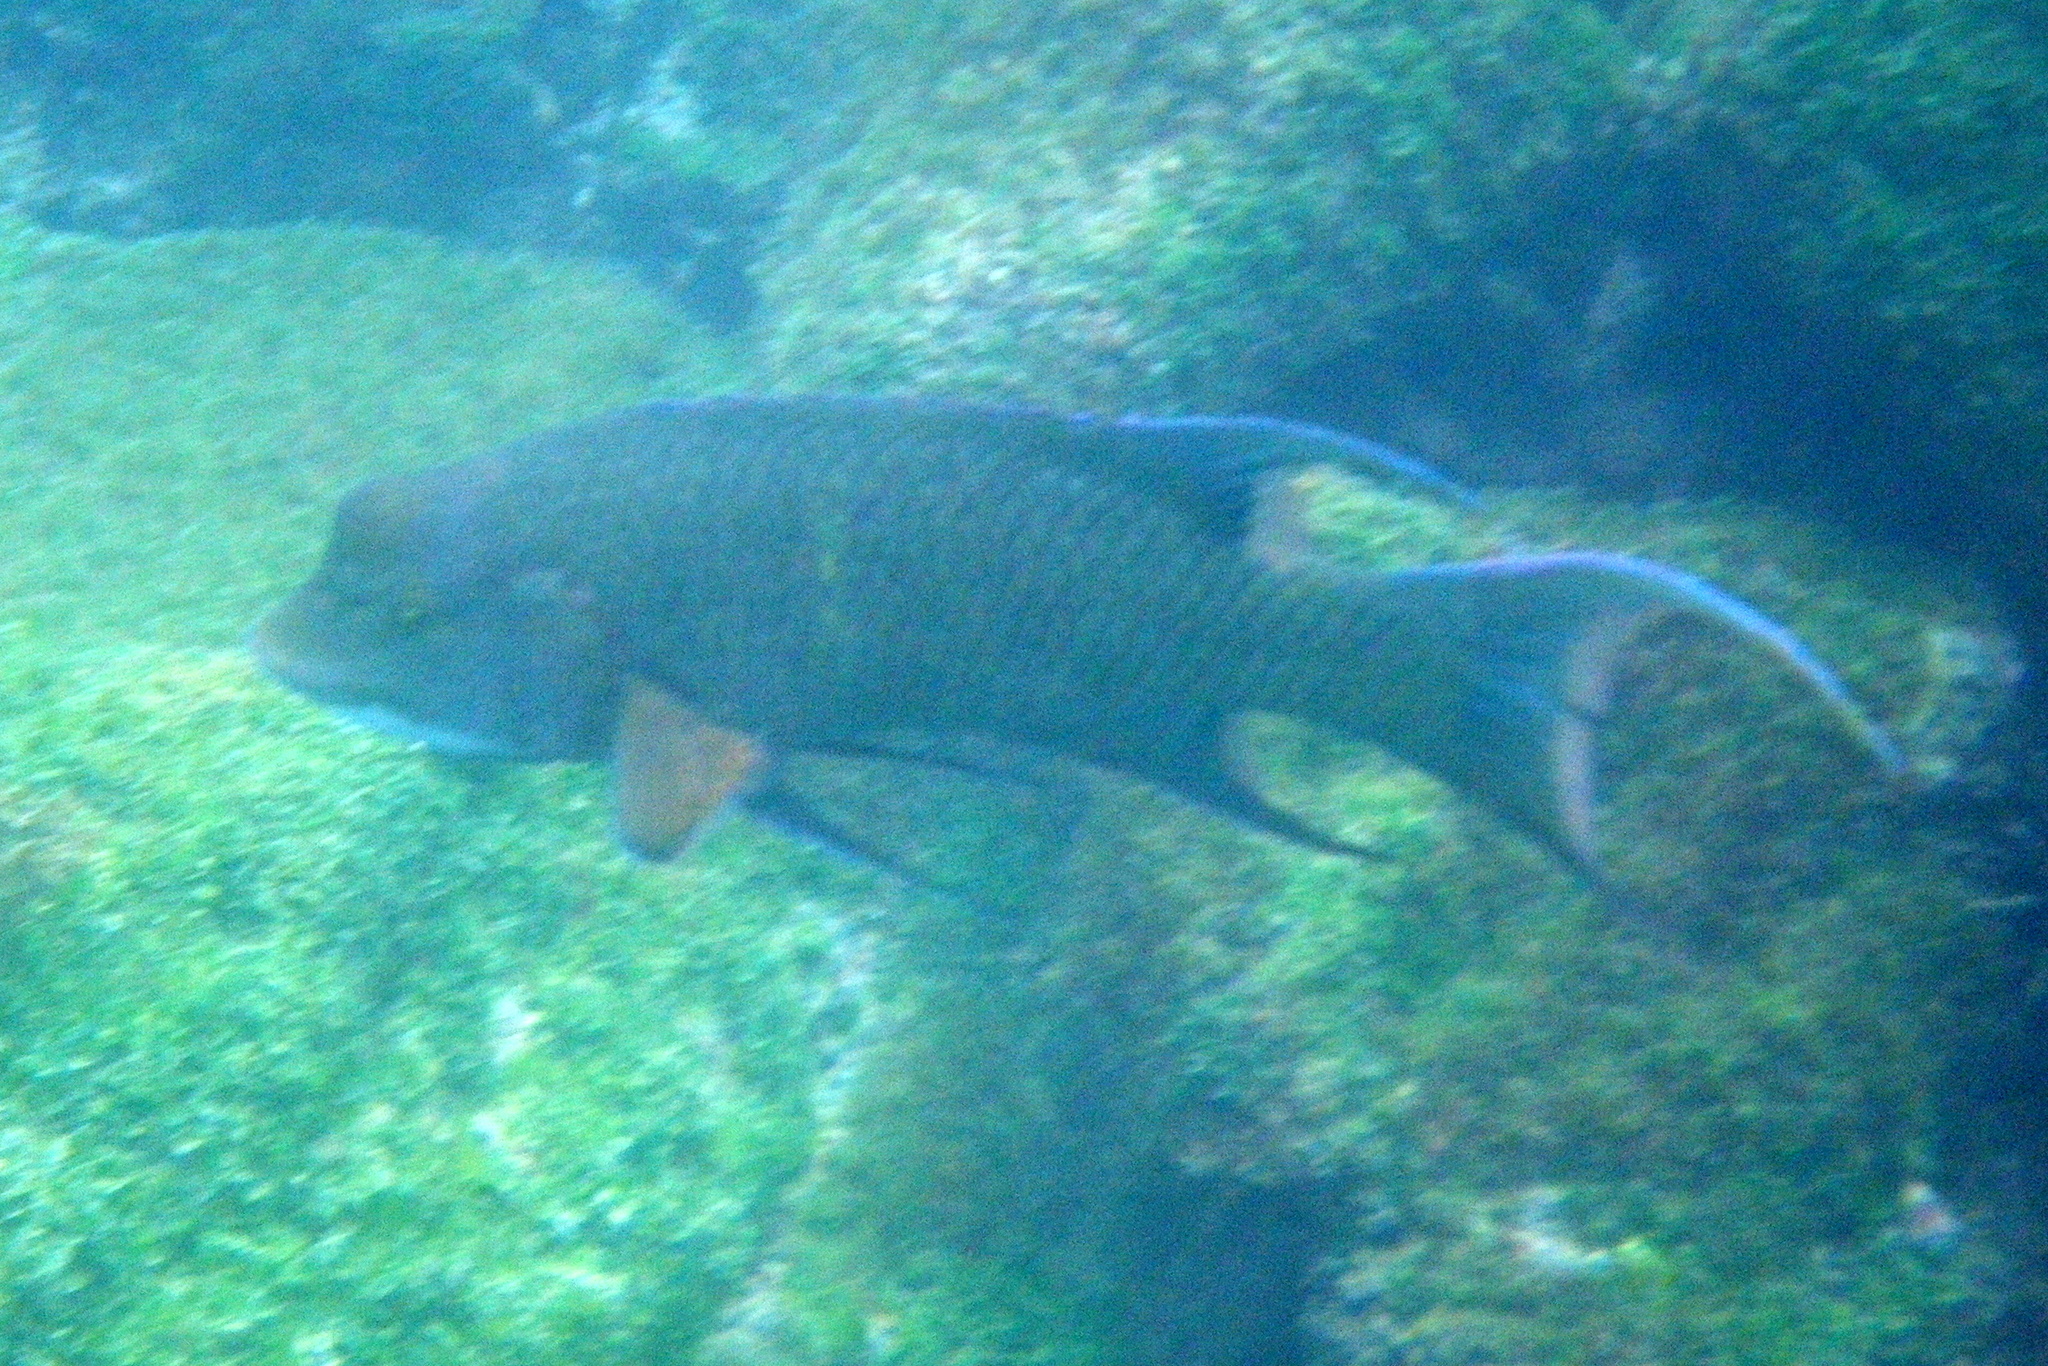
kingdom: Animalia
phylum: Chordata
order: Perciformes
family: Labridae
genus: Bodianus
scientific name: Bodianus diplotaenia
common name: Mexican hogfish
